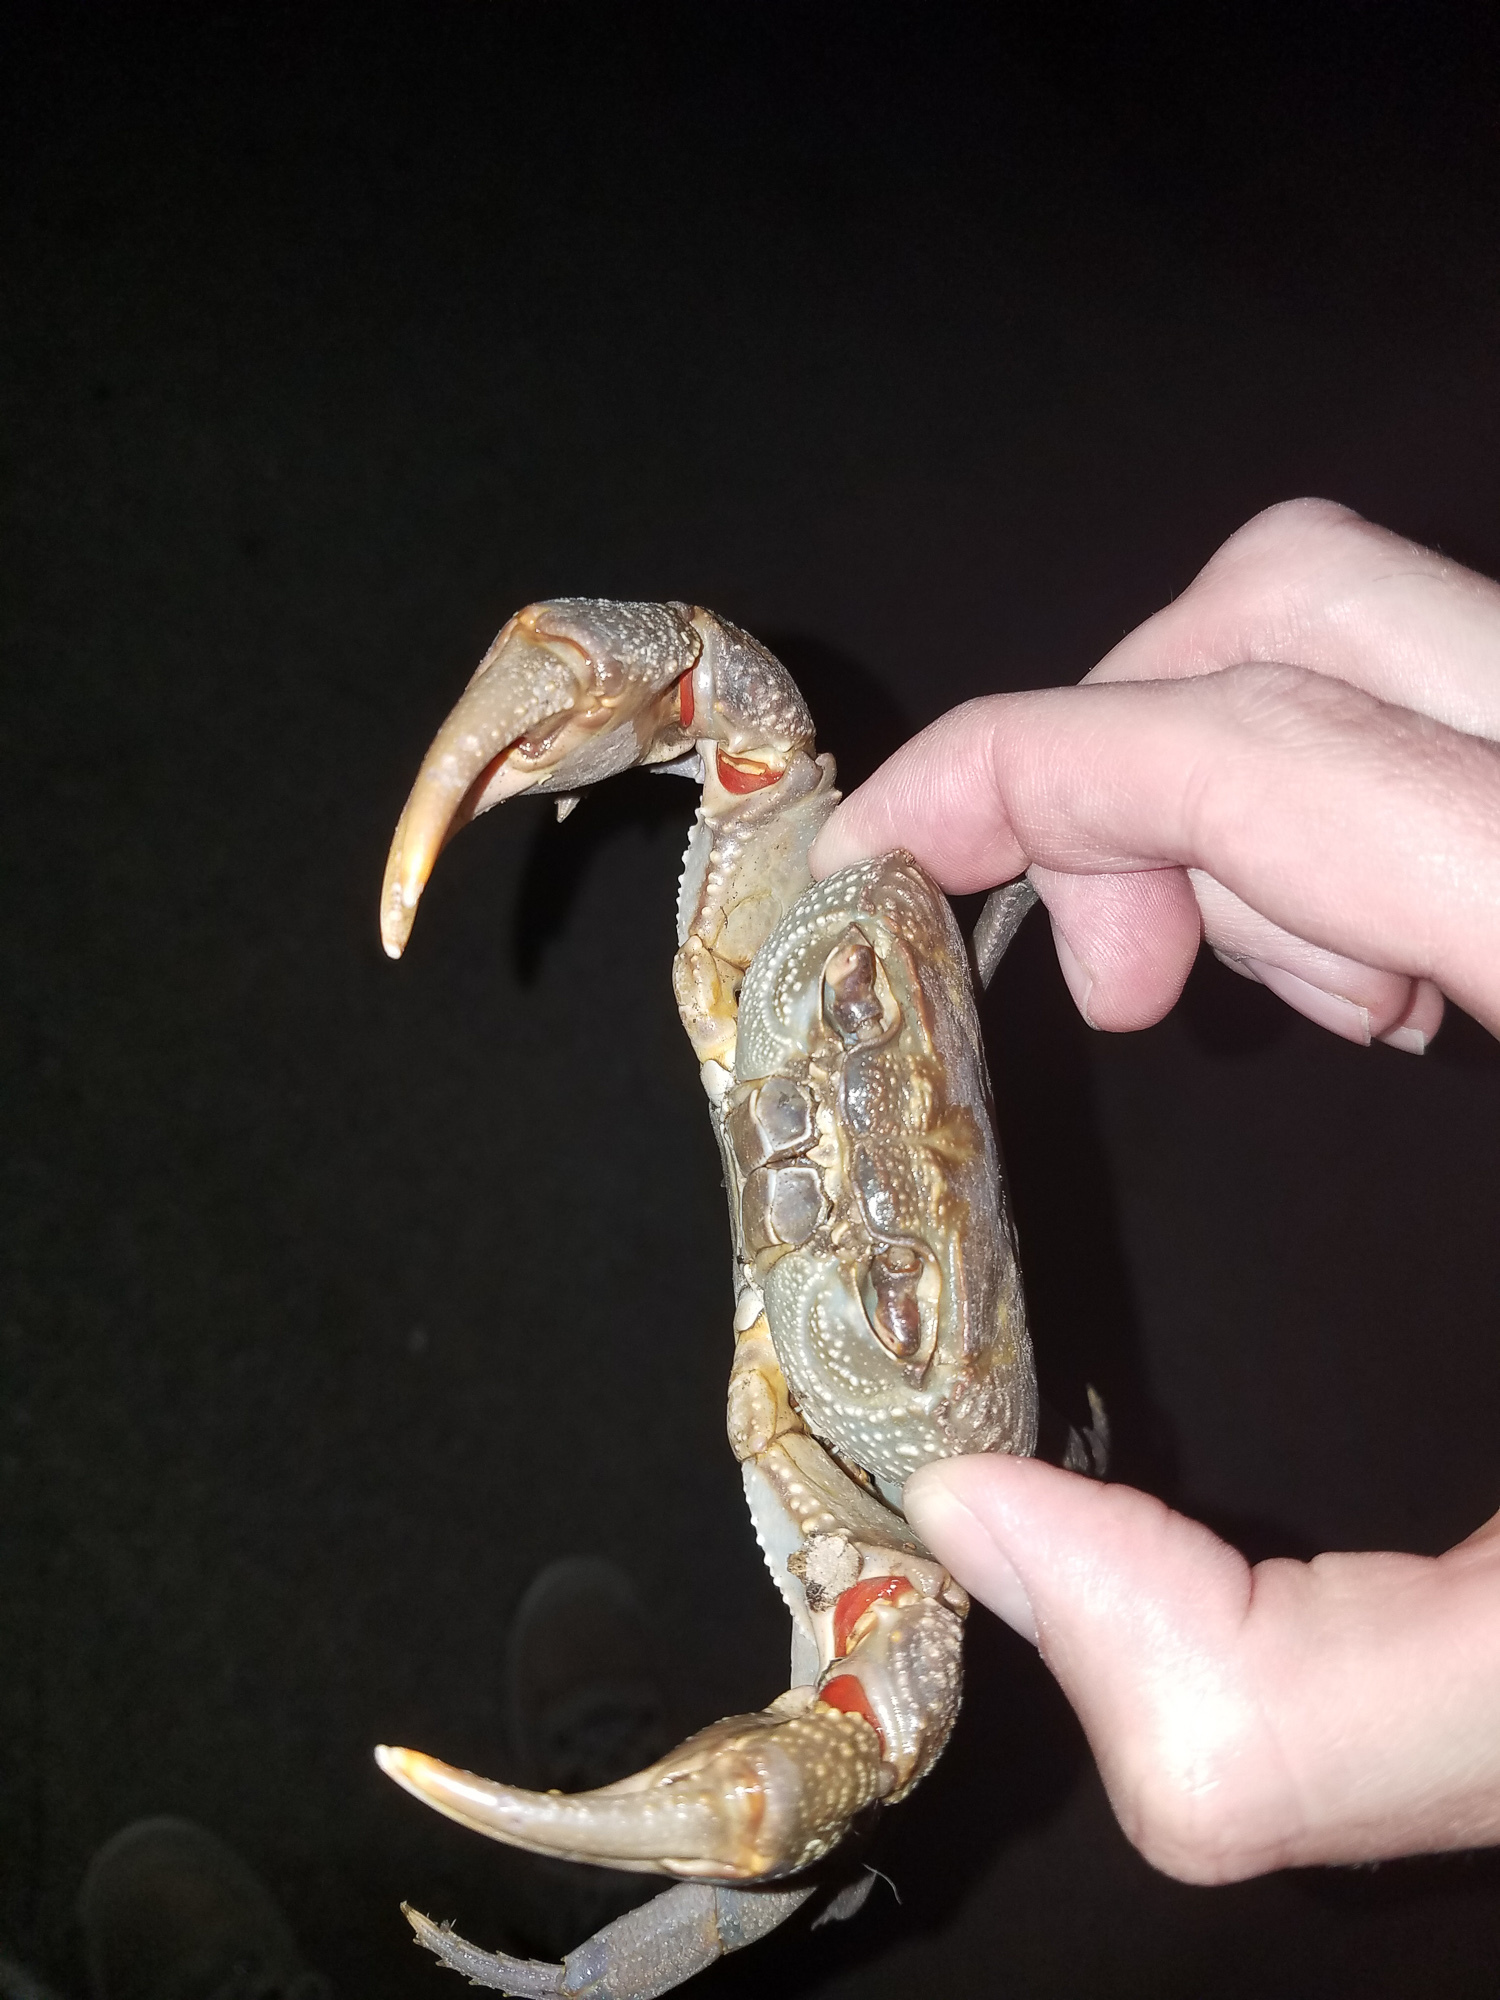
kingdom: Animalia
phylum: Arthropoda
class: Malacostraca
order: Decapoda
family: Potamidae
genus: Potamon
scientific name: Potamon
